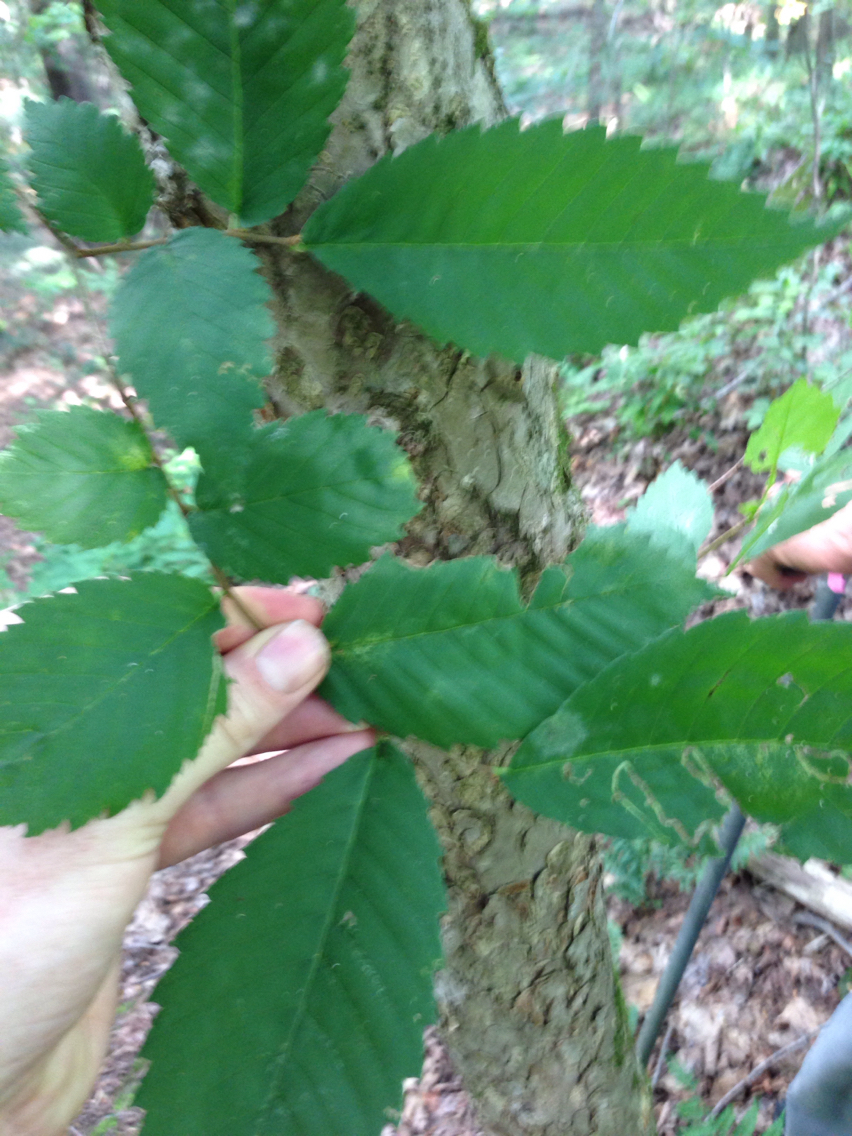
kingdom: Plantae
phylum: Tracheophyta
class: Magnoliopsida
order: Rosales
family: Ulmaceae
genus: Ulmus
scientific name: Ulmus americana
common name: American elm
